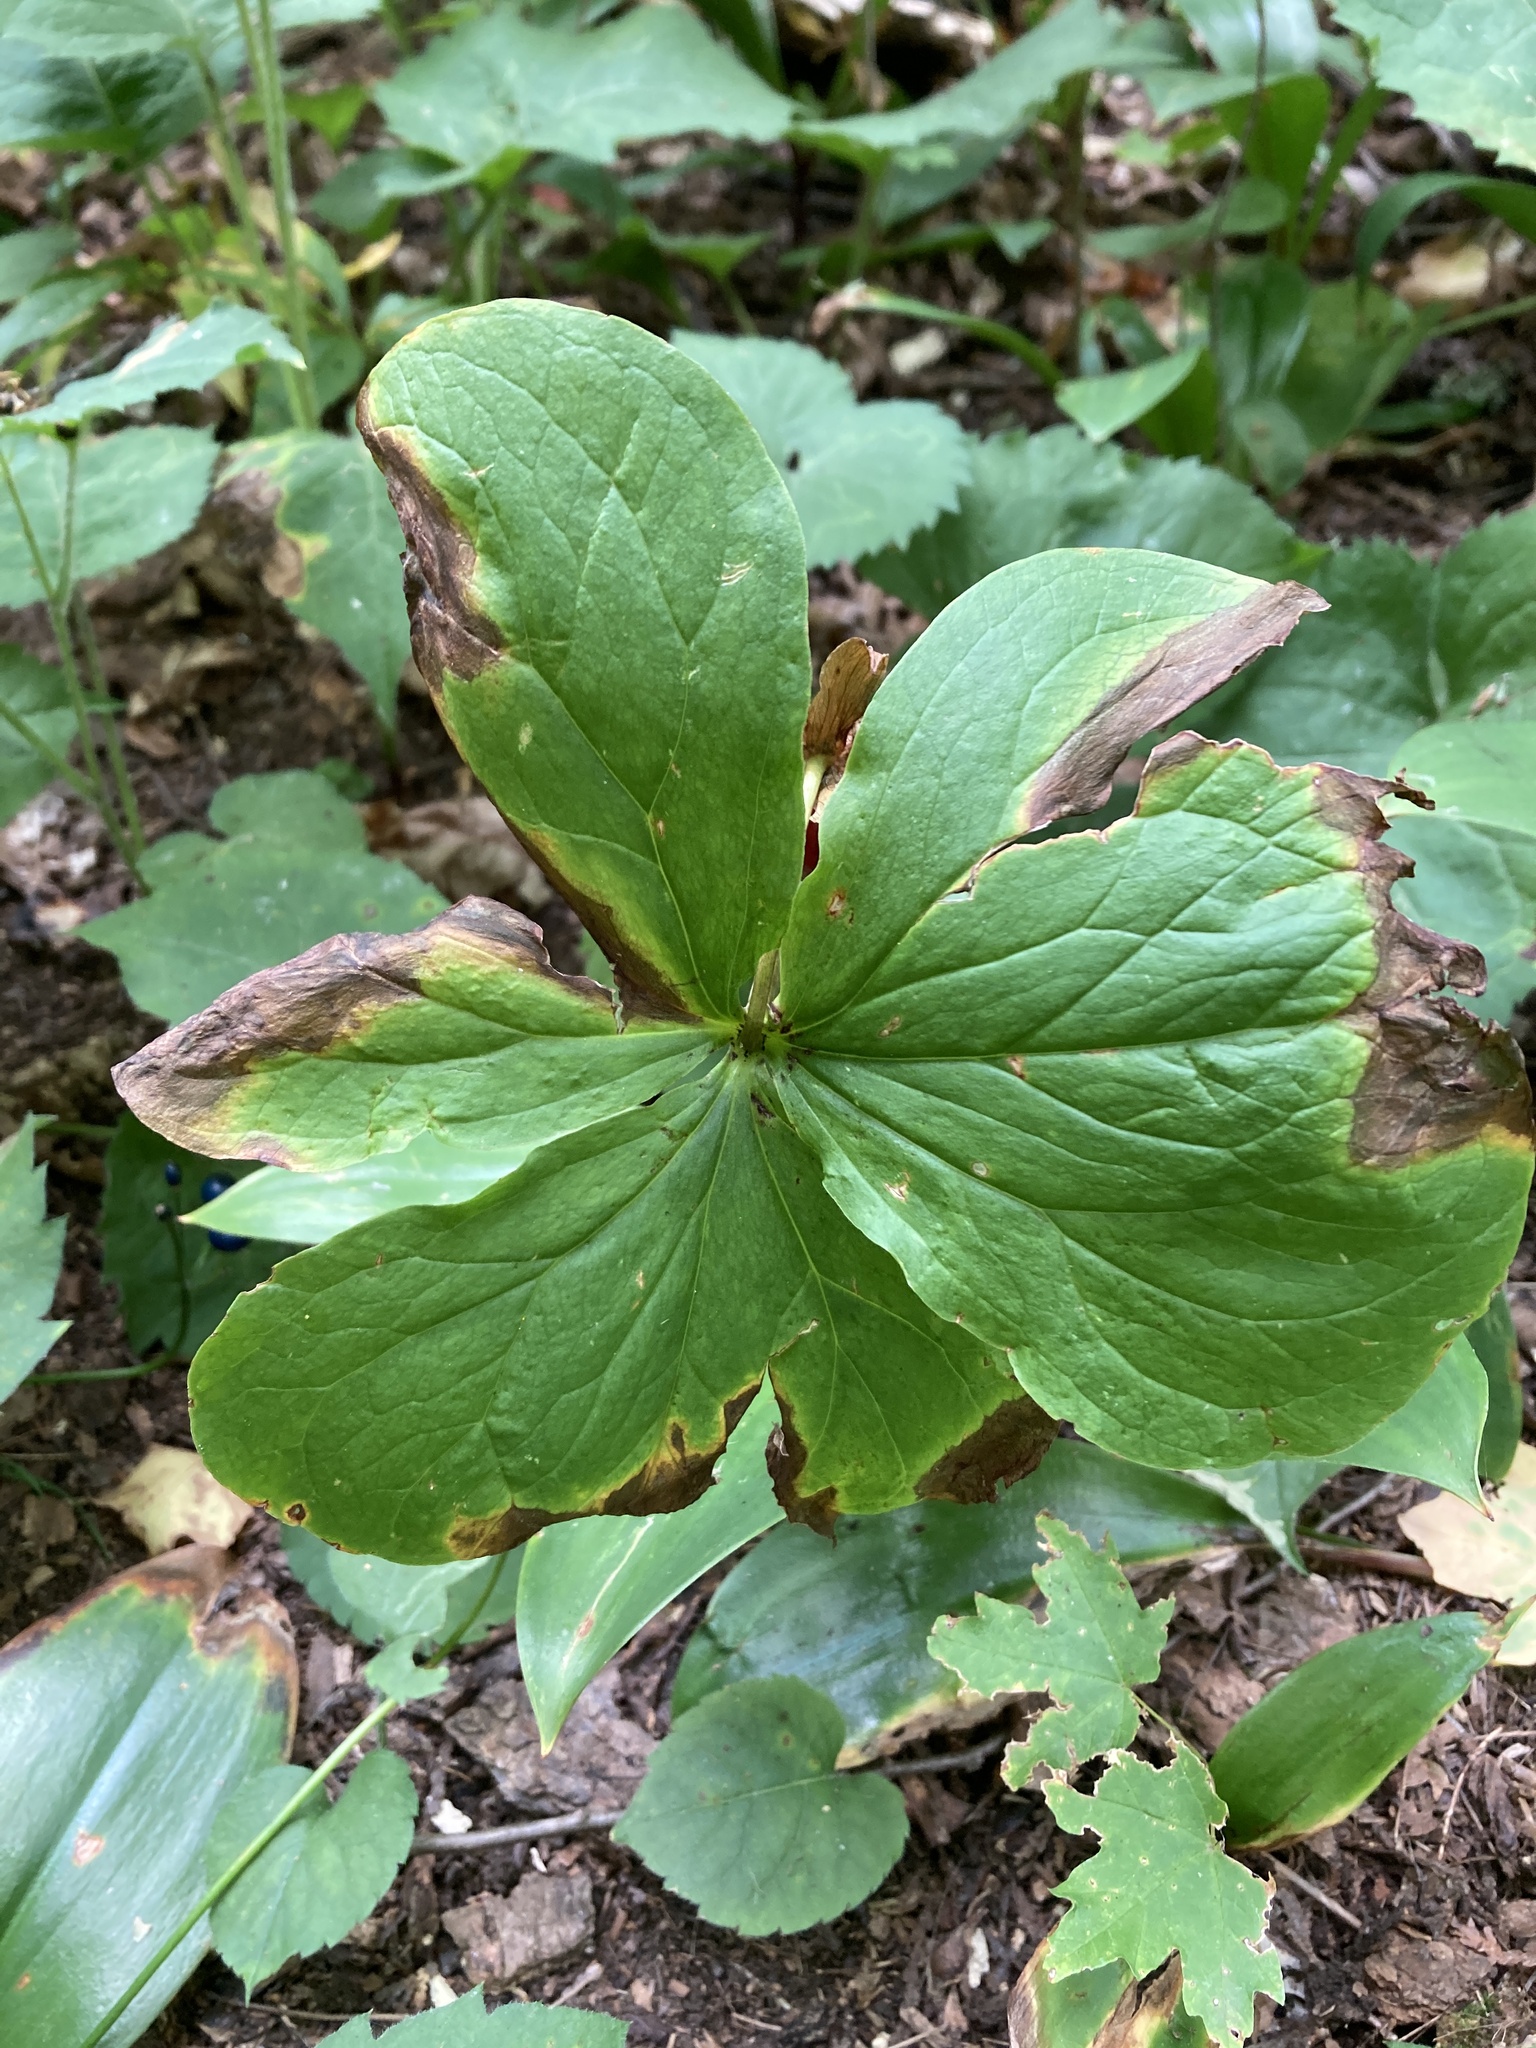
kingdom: Plantae
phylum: Tracheophyta
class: Liliopsida
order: Liliales
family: Melanthiaceae
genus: Trillium
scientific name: Trillium cernuum
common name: Nodding trillium
